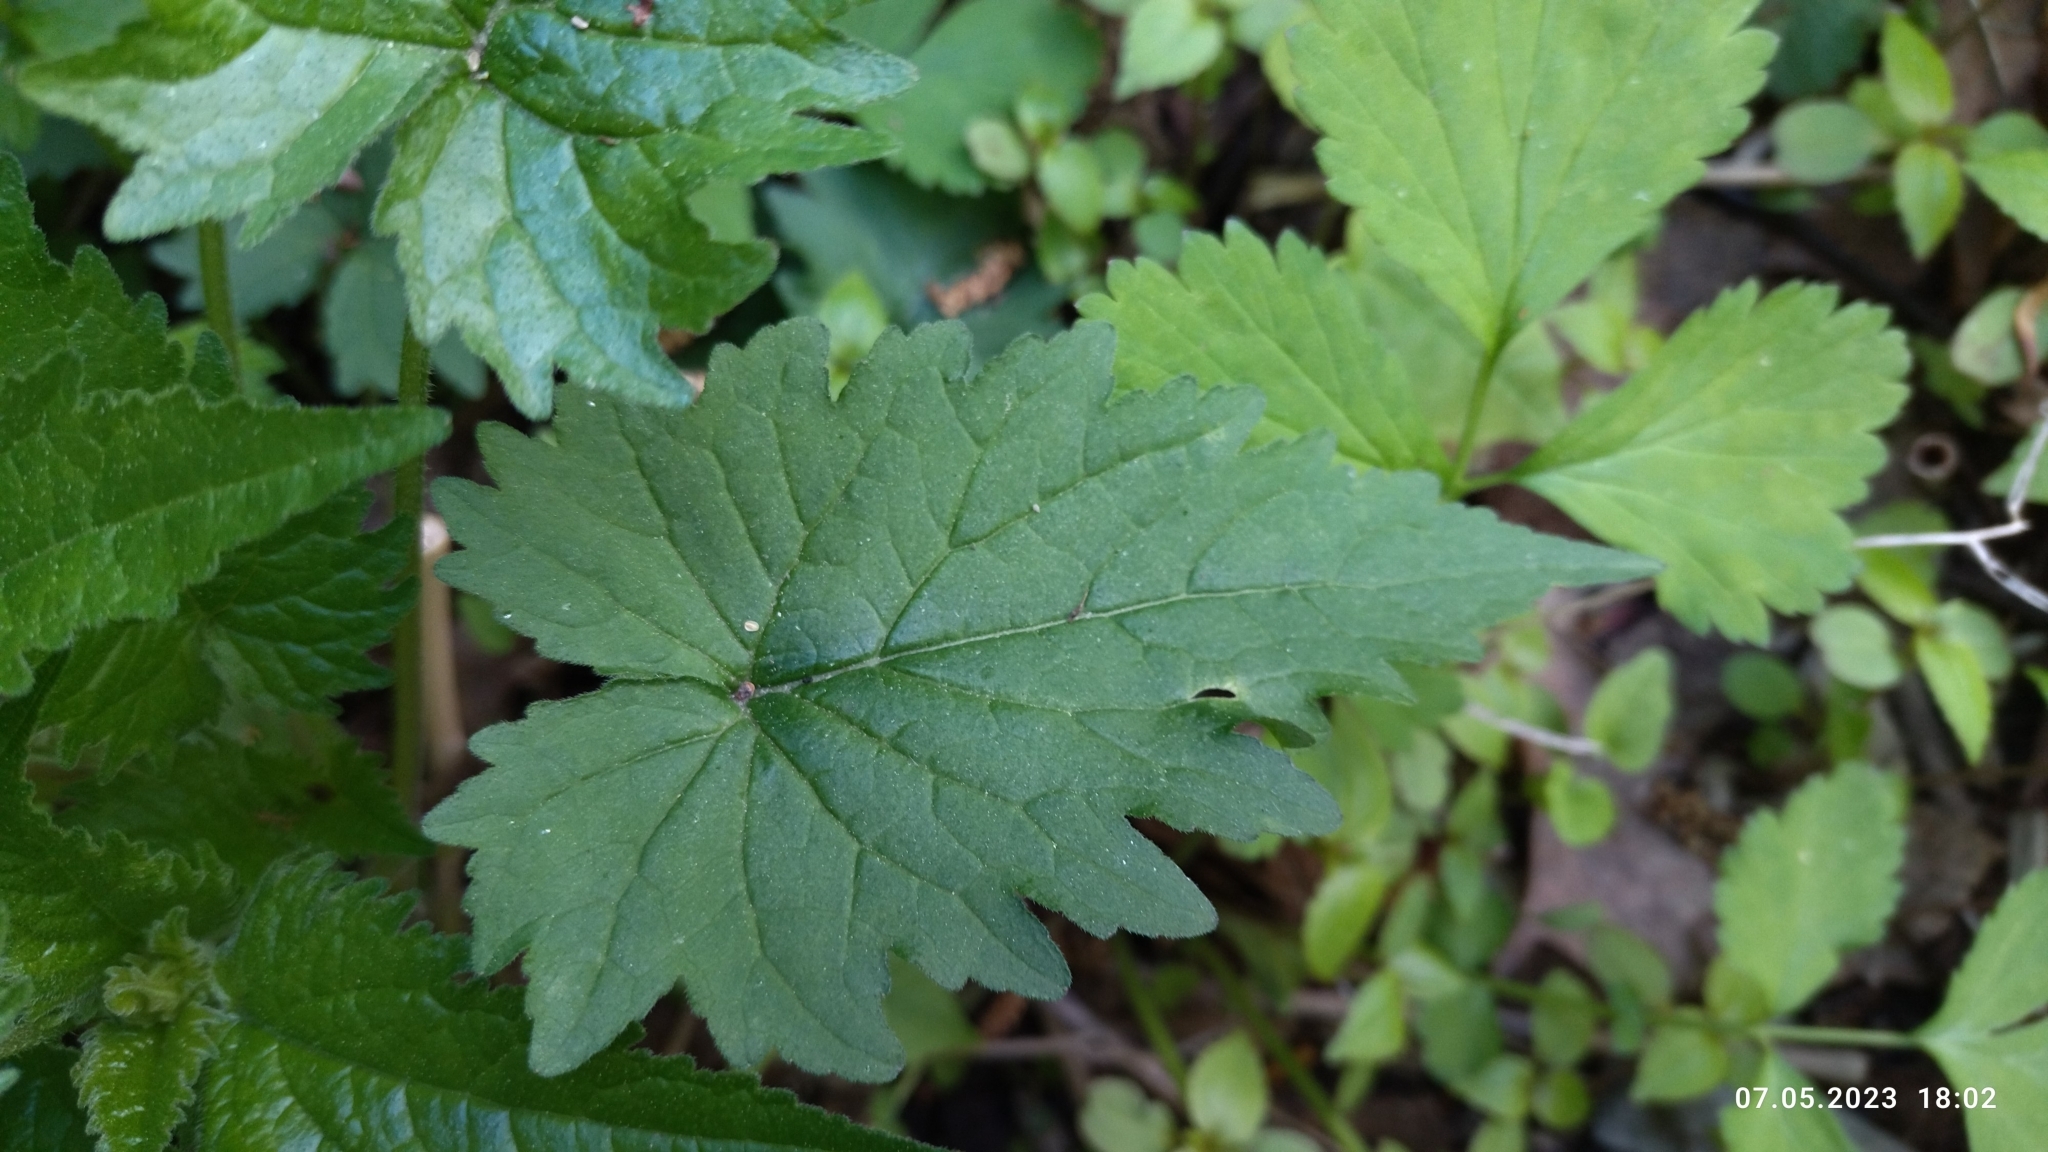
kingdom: Plantae
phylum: Tracheophyta
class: Magnoliopsida
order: Asterales
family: Campanulaceae
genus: Campanula
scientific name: Campanula trachelium
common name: Nettle-leaved bellflower
